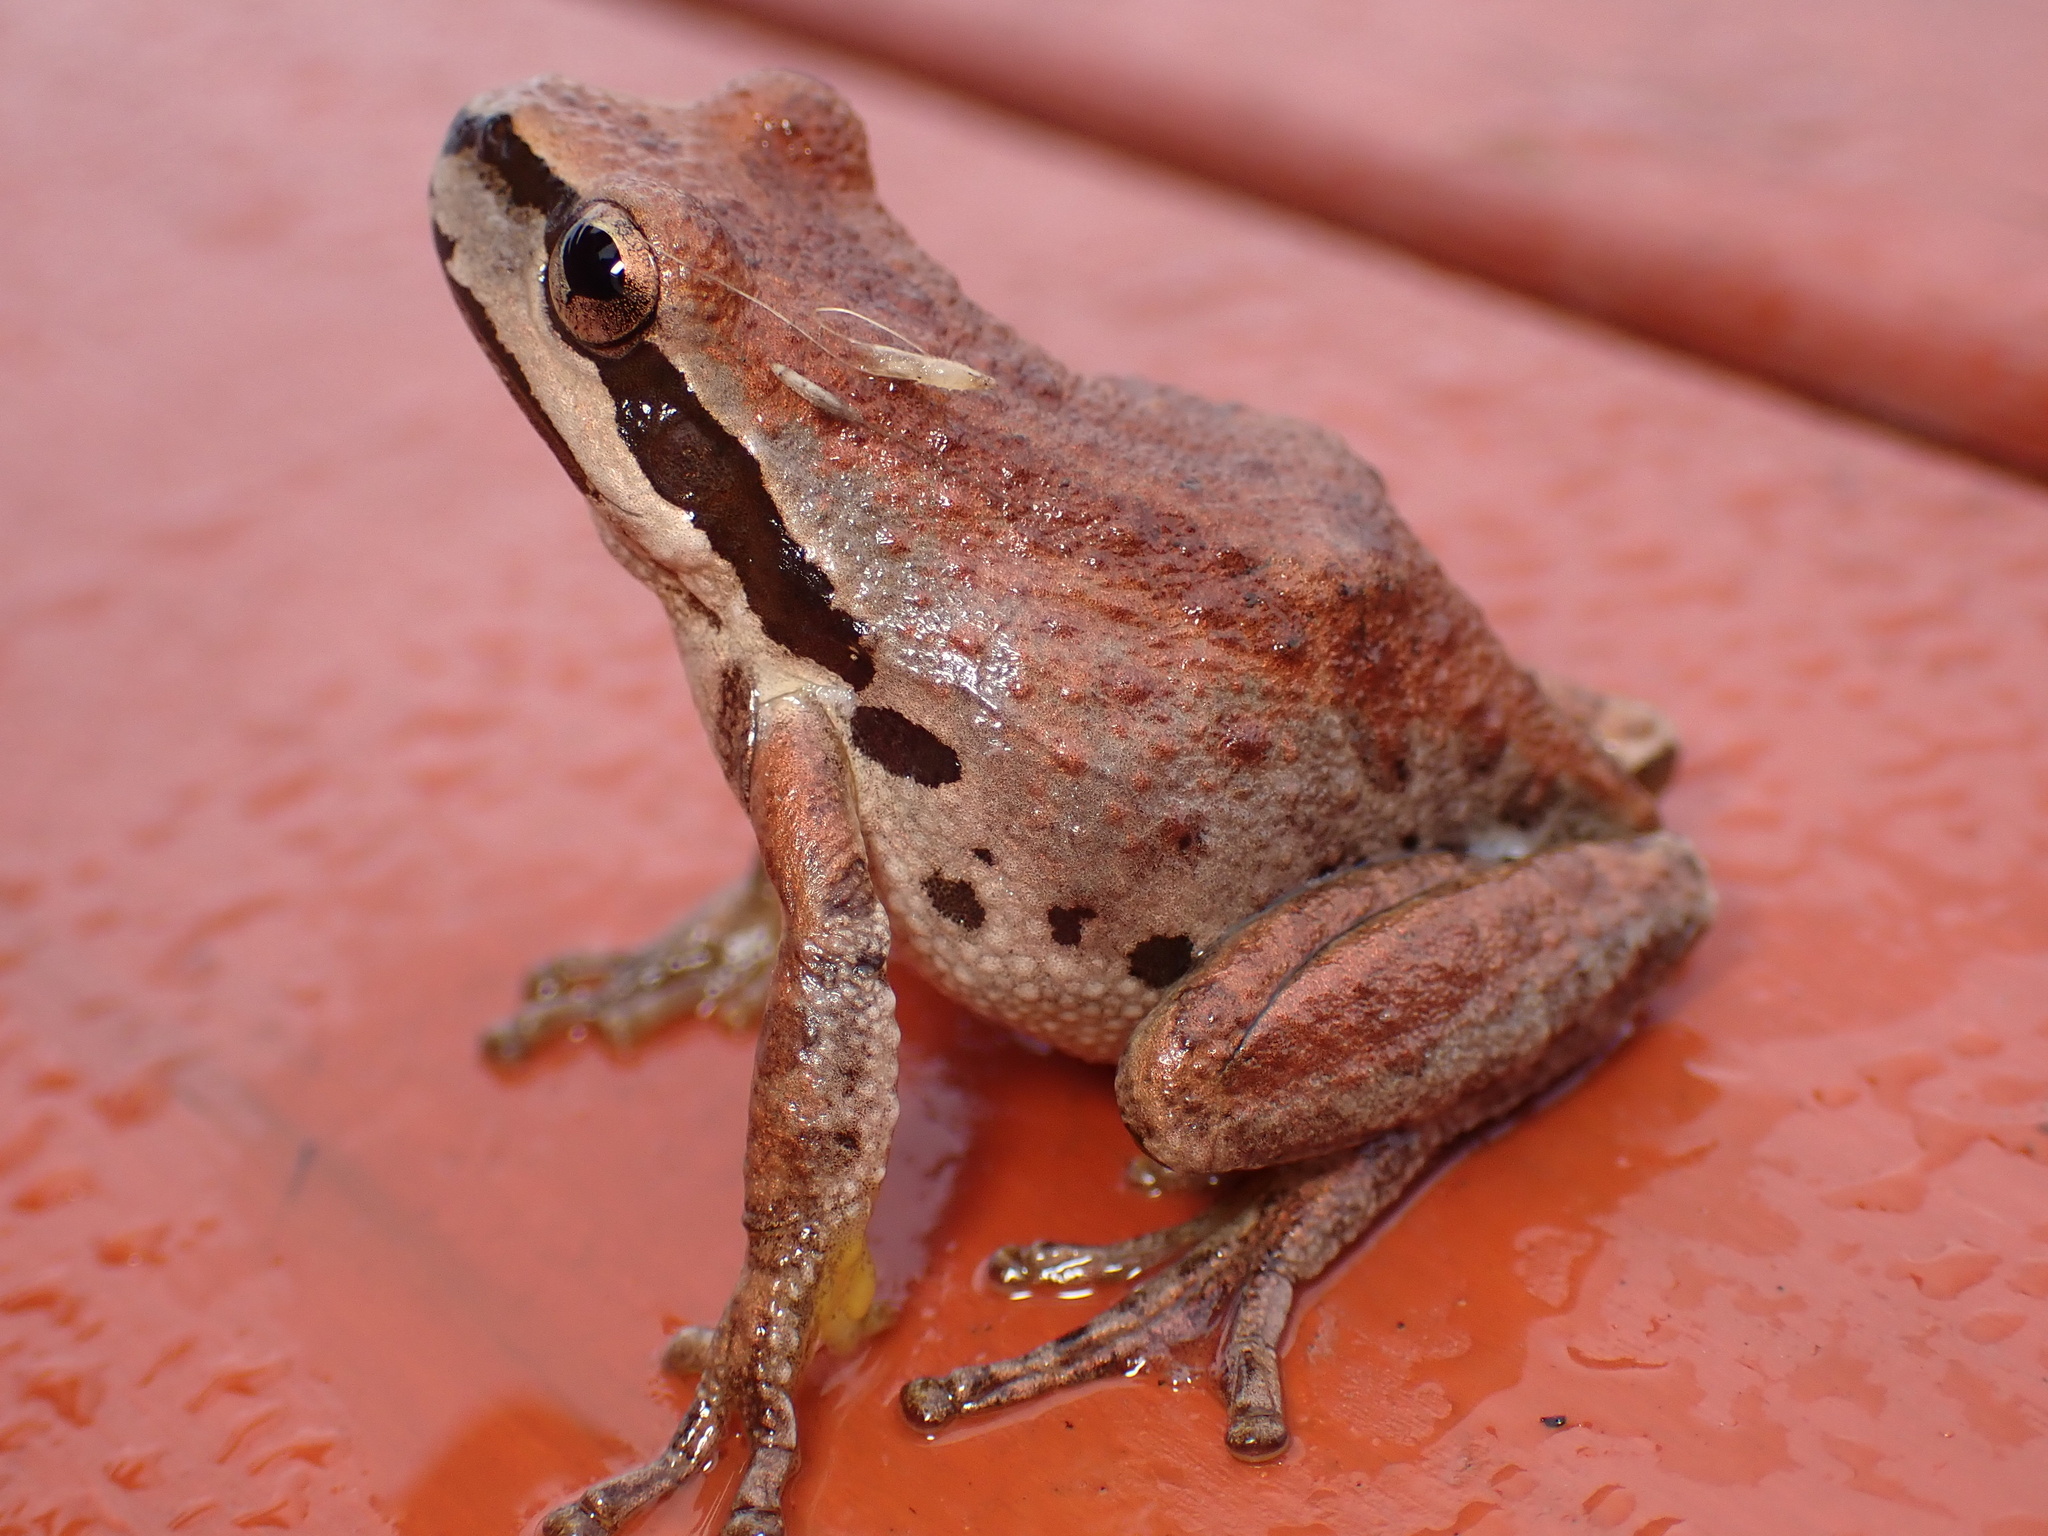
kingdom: Animalia
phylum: Chordata
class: Amphibia
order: Anura
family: Hylidae
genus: Pseudacris
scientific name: Pseudacris regilla
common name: Pacific chorus frog
